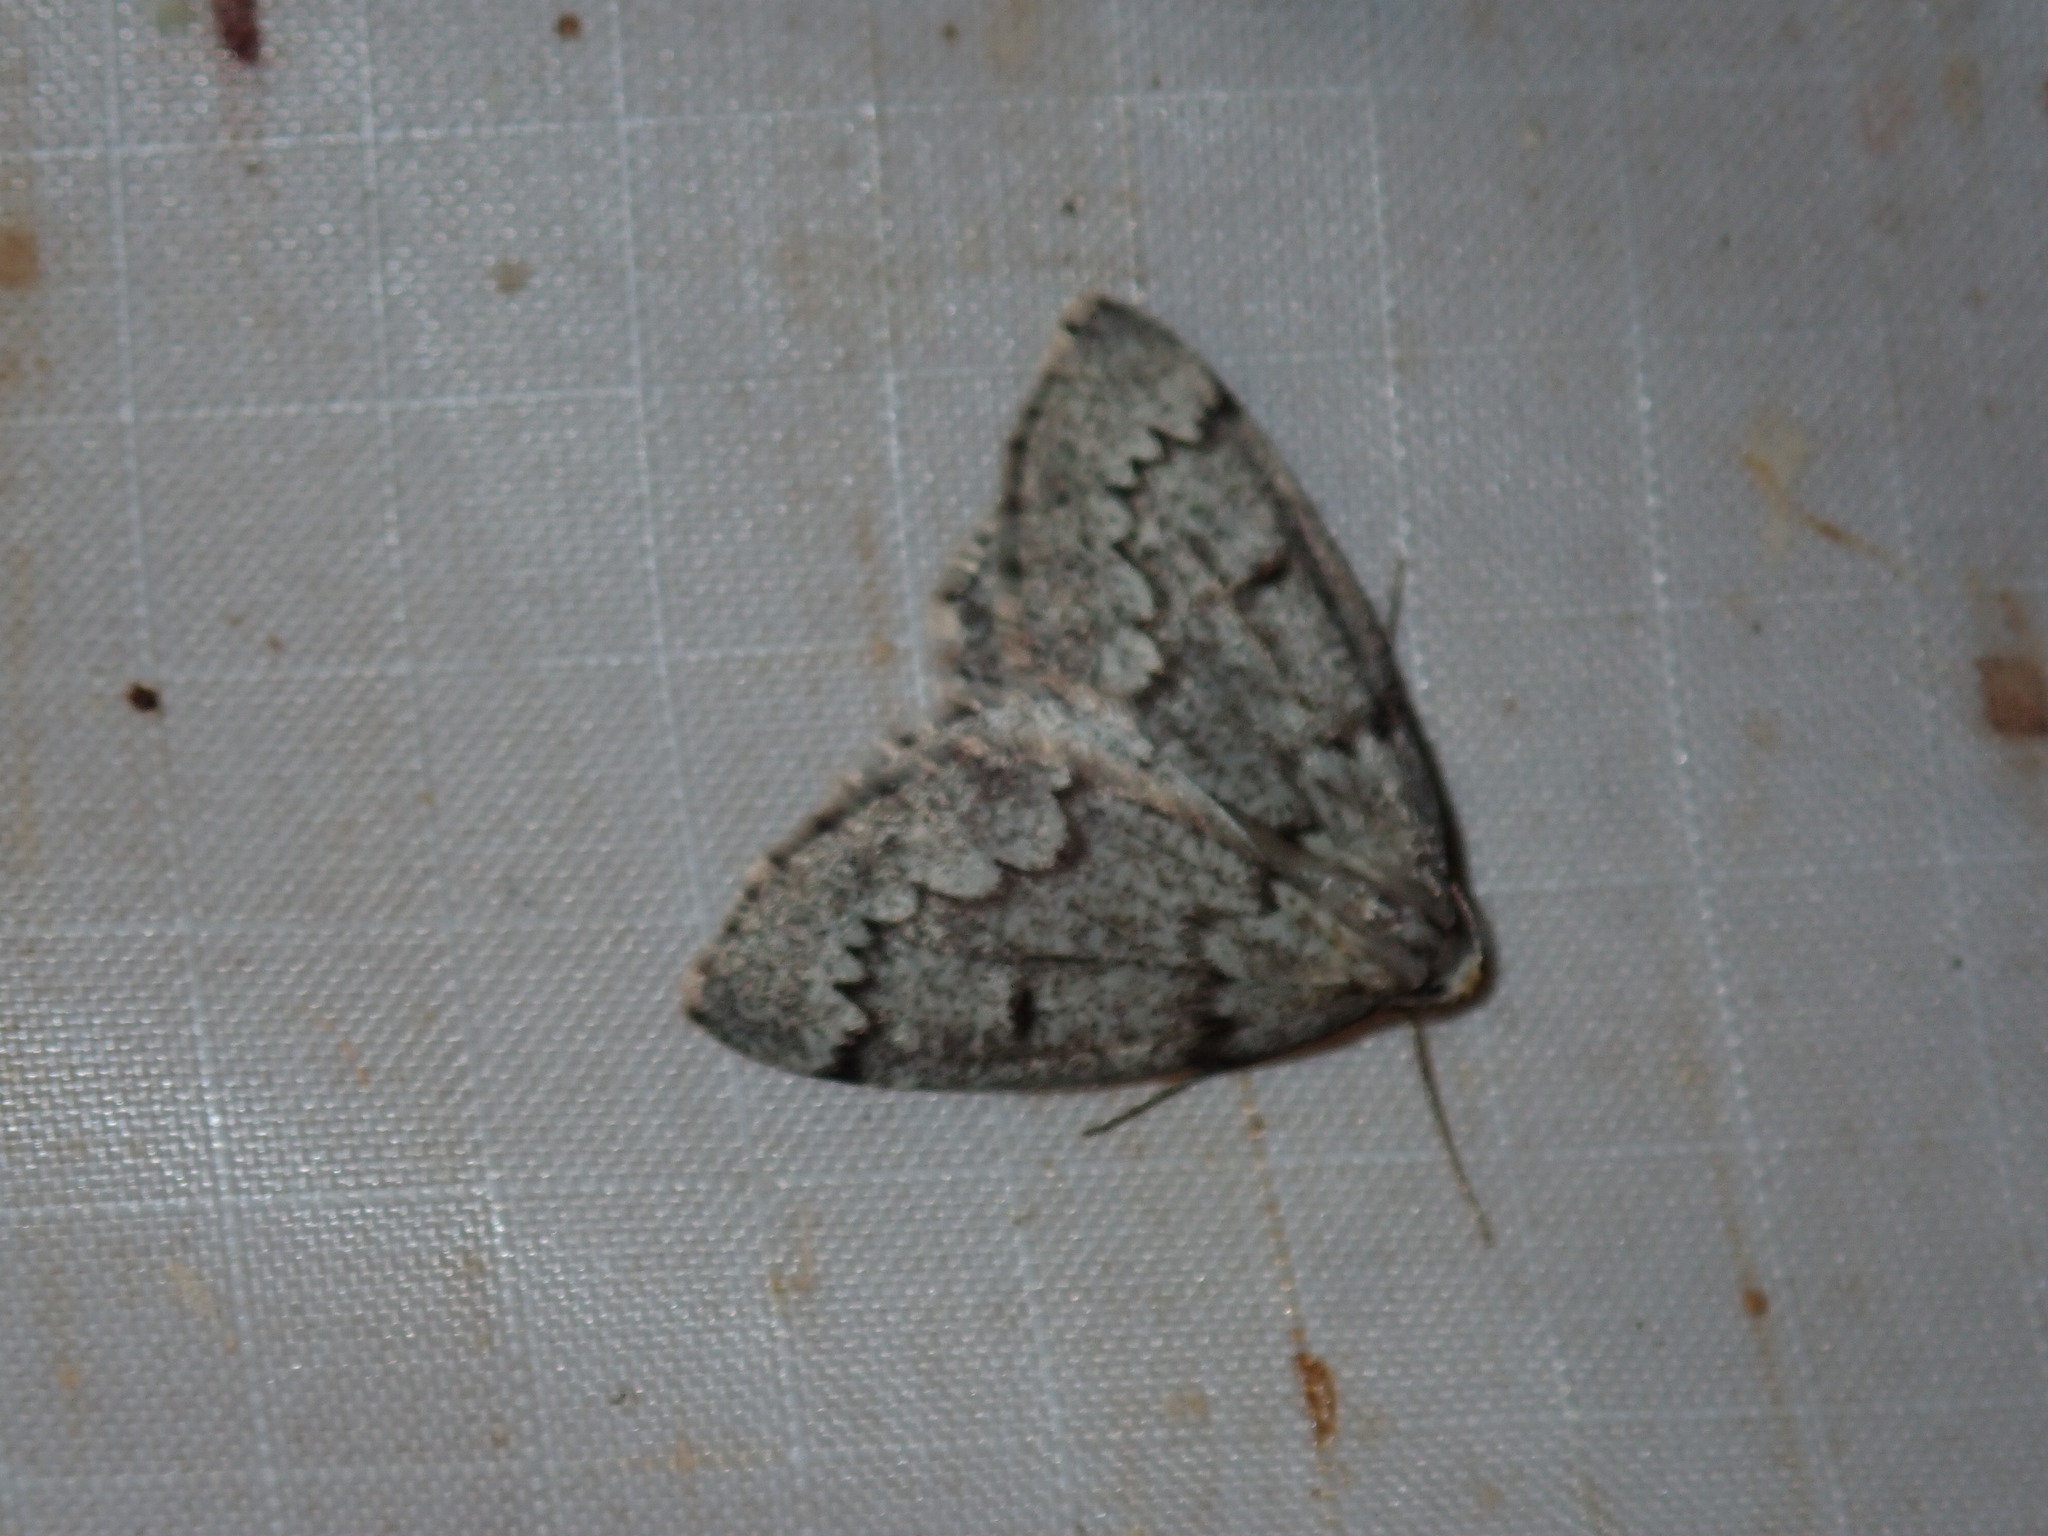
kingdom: Animalia
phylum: Arthropoda
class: Insecta
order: Lepidoptera
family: Geometridae
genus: Nepytia
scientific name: Nepytia canosaria
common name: False hemlock looper
